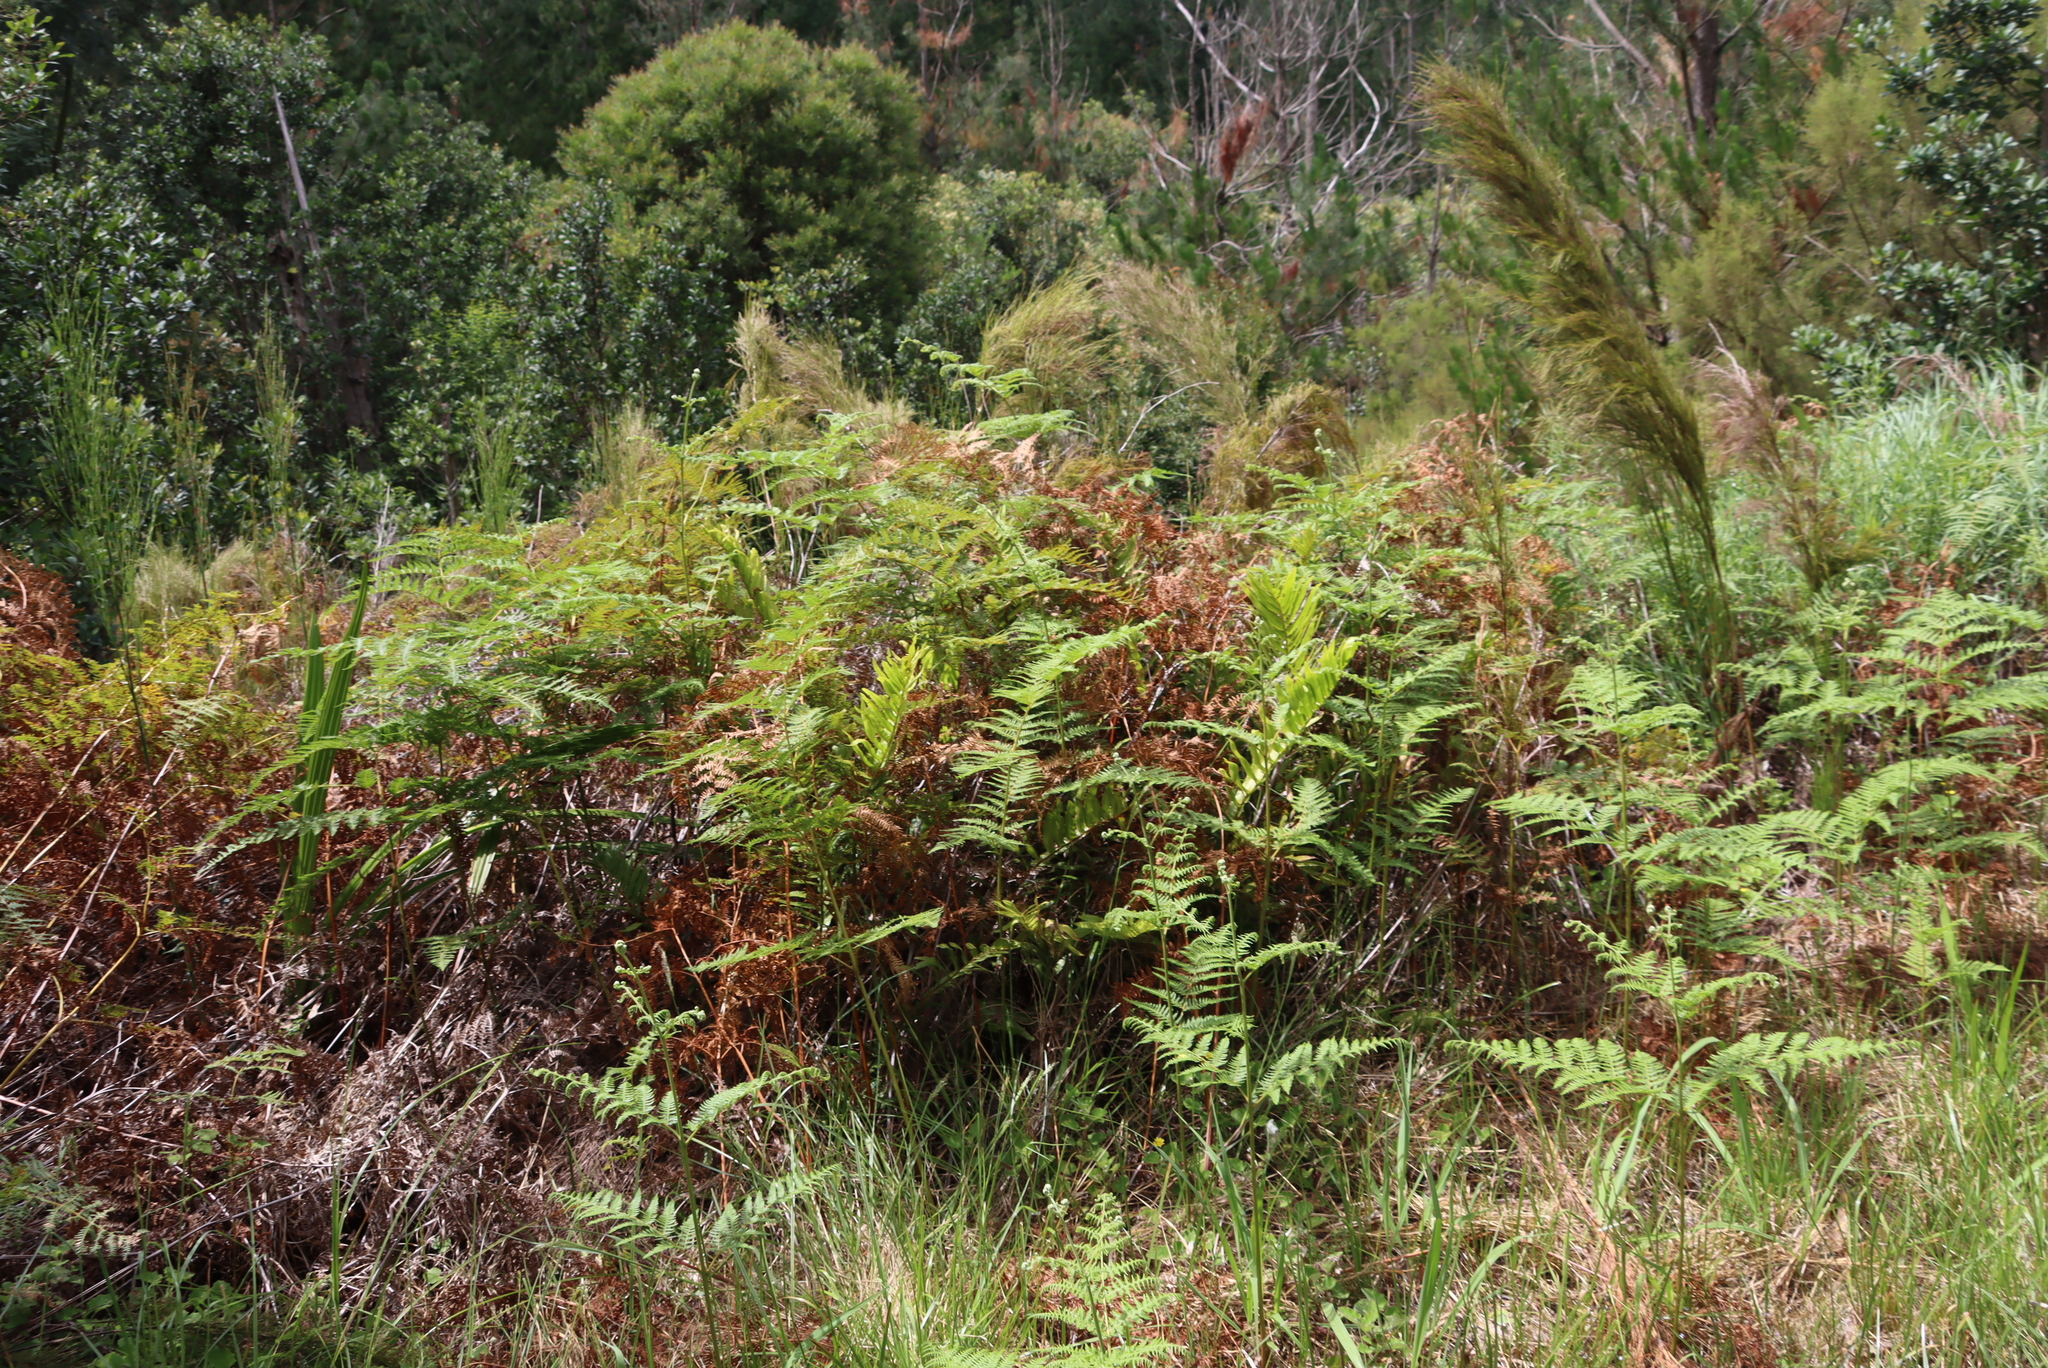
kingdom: Plantae
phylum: Tracheophyta
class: Polypodiopsida
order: Polypodiales
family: Dennstaedtiaceae
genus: Pteridium
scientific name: Pteridium aquilinum
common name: Bracken
